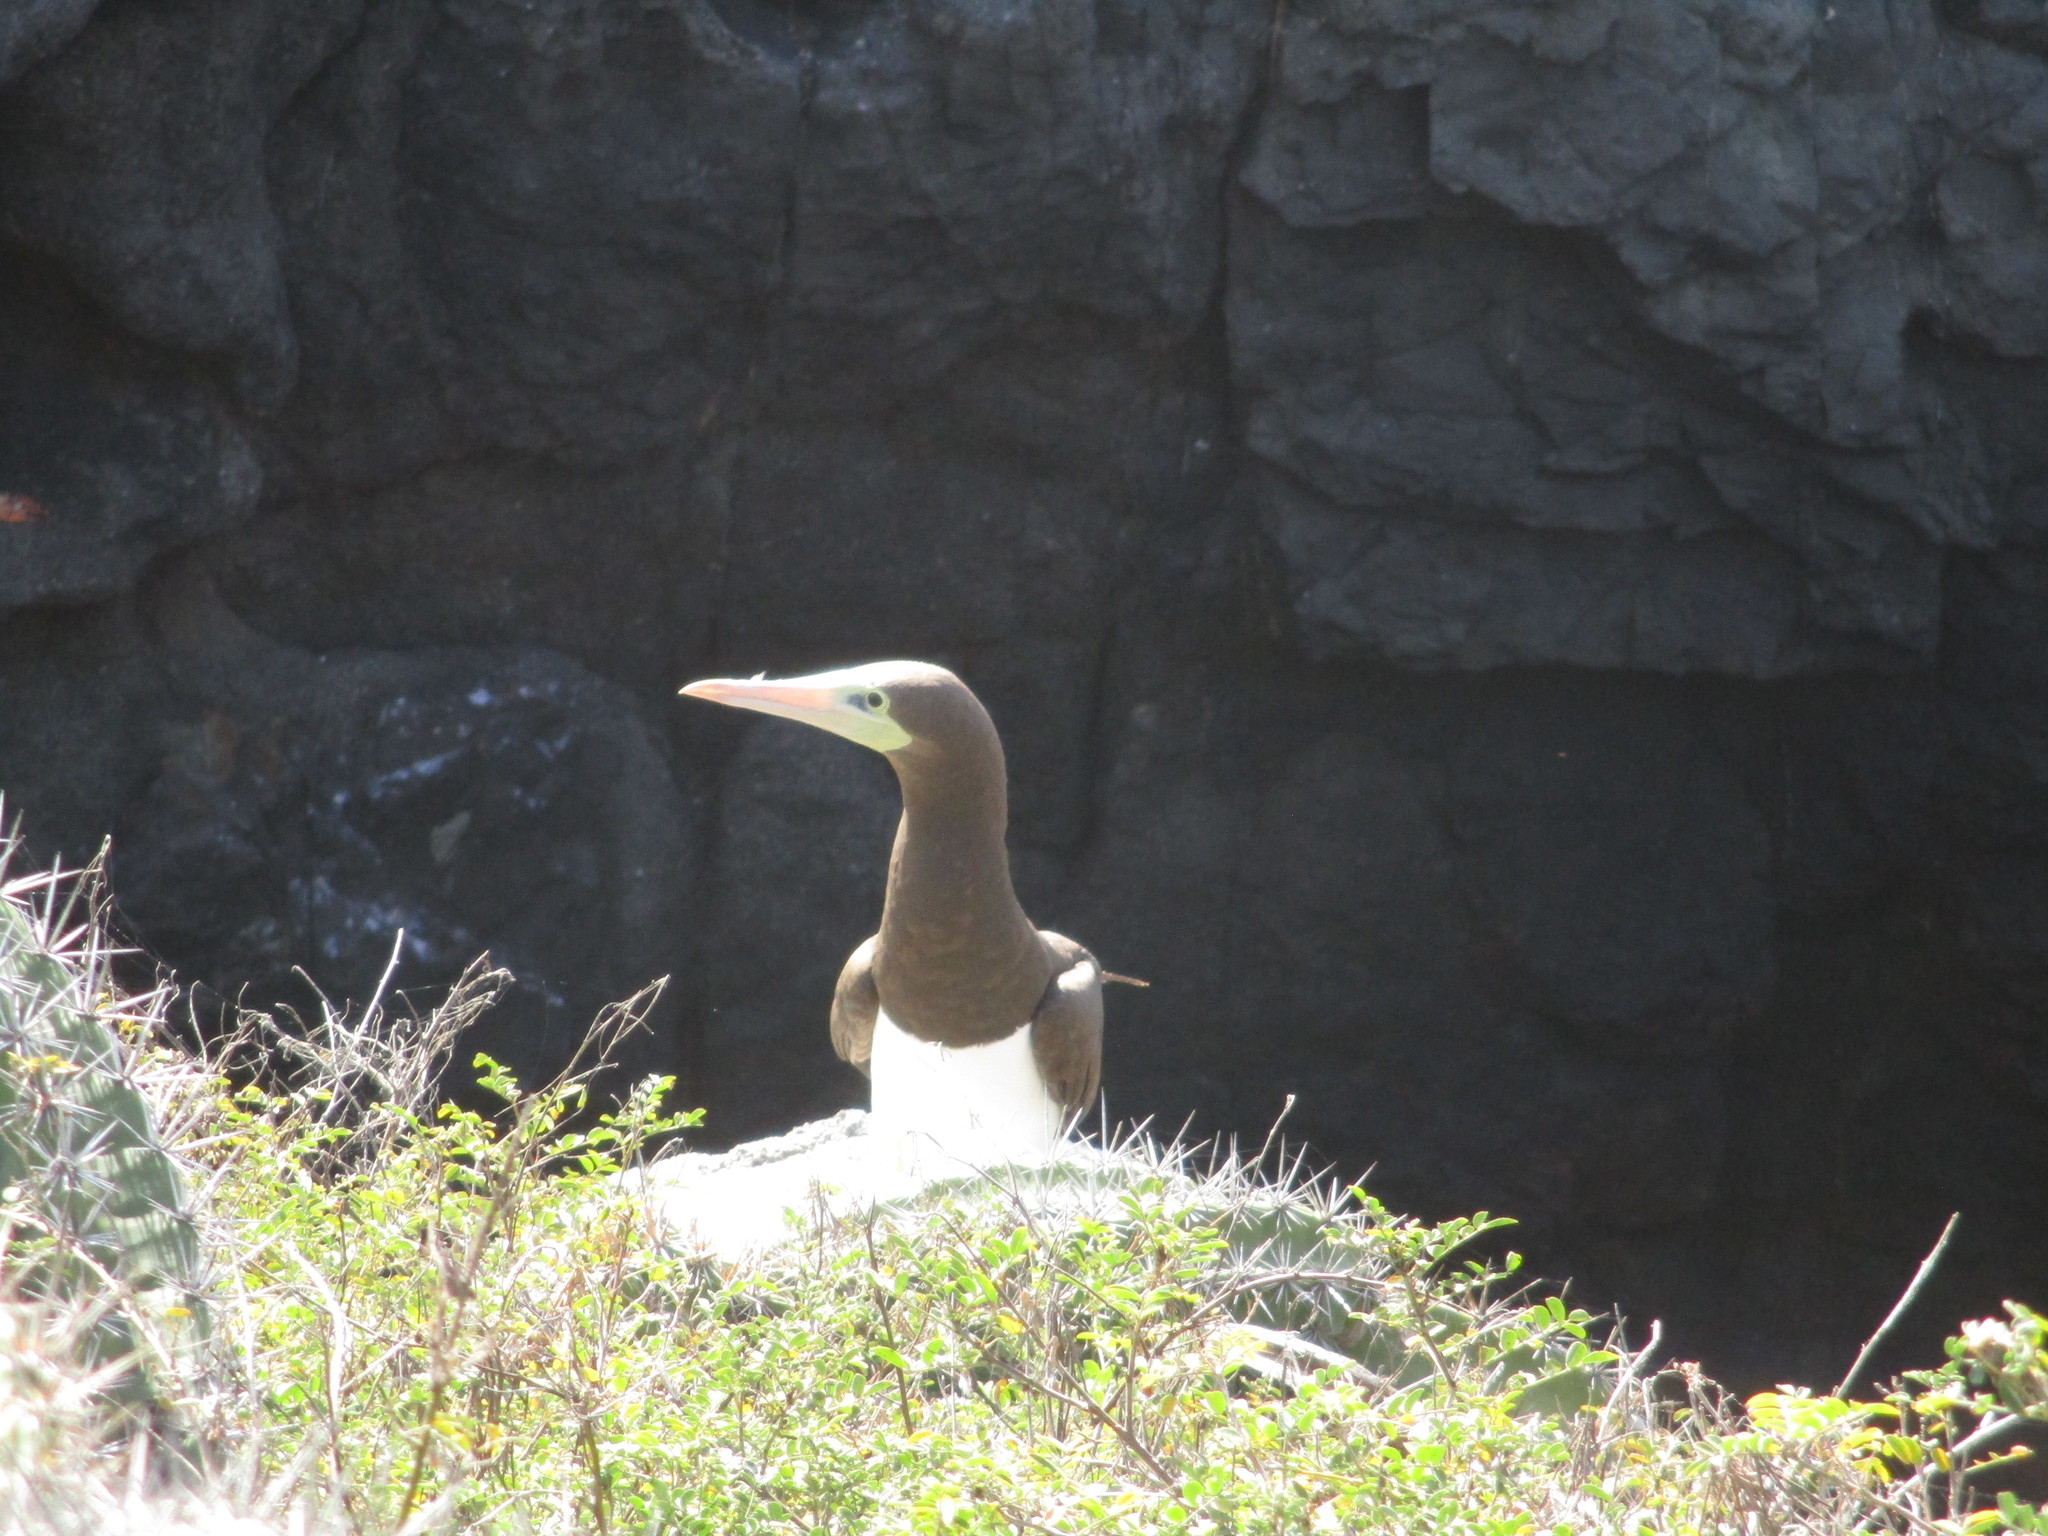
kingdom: Animalia
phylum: Chordata
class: Aves
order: Suliformes
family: Sulidae
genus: Sula
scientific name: Sula leucogaster
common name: Brown booby
